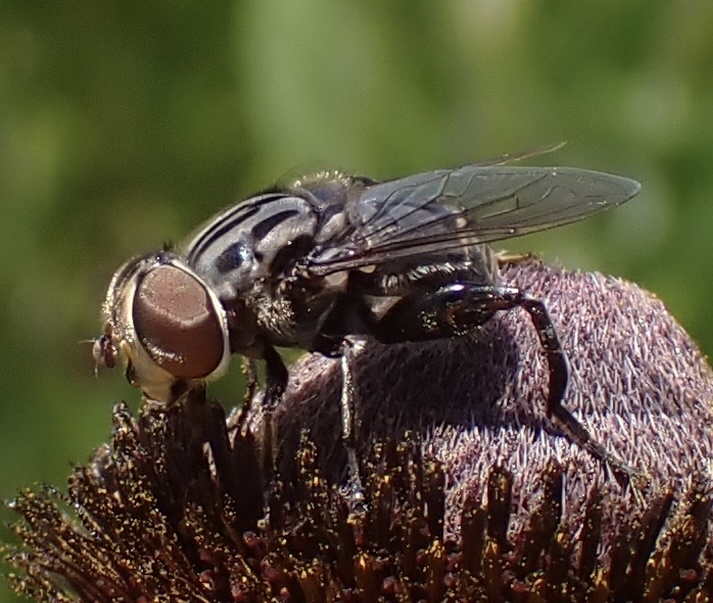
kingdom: Animalia
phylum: Arthropoda
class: Insecta
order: Diptera
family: Syrphidae
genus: Palpada
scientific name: Palpada furcata
